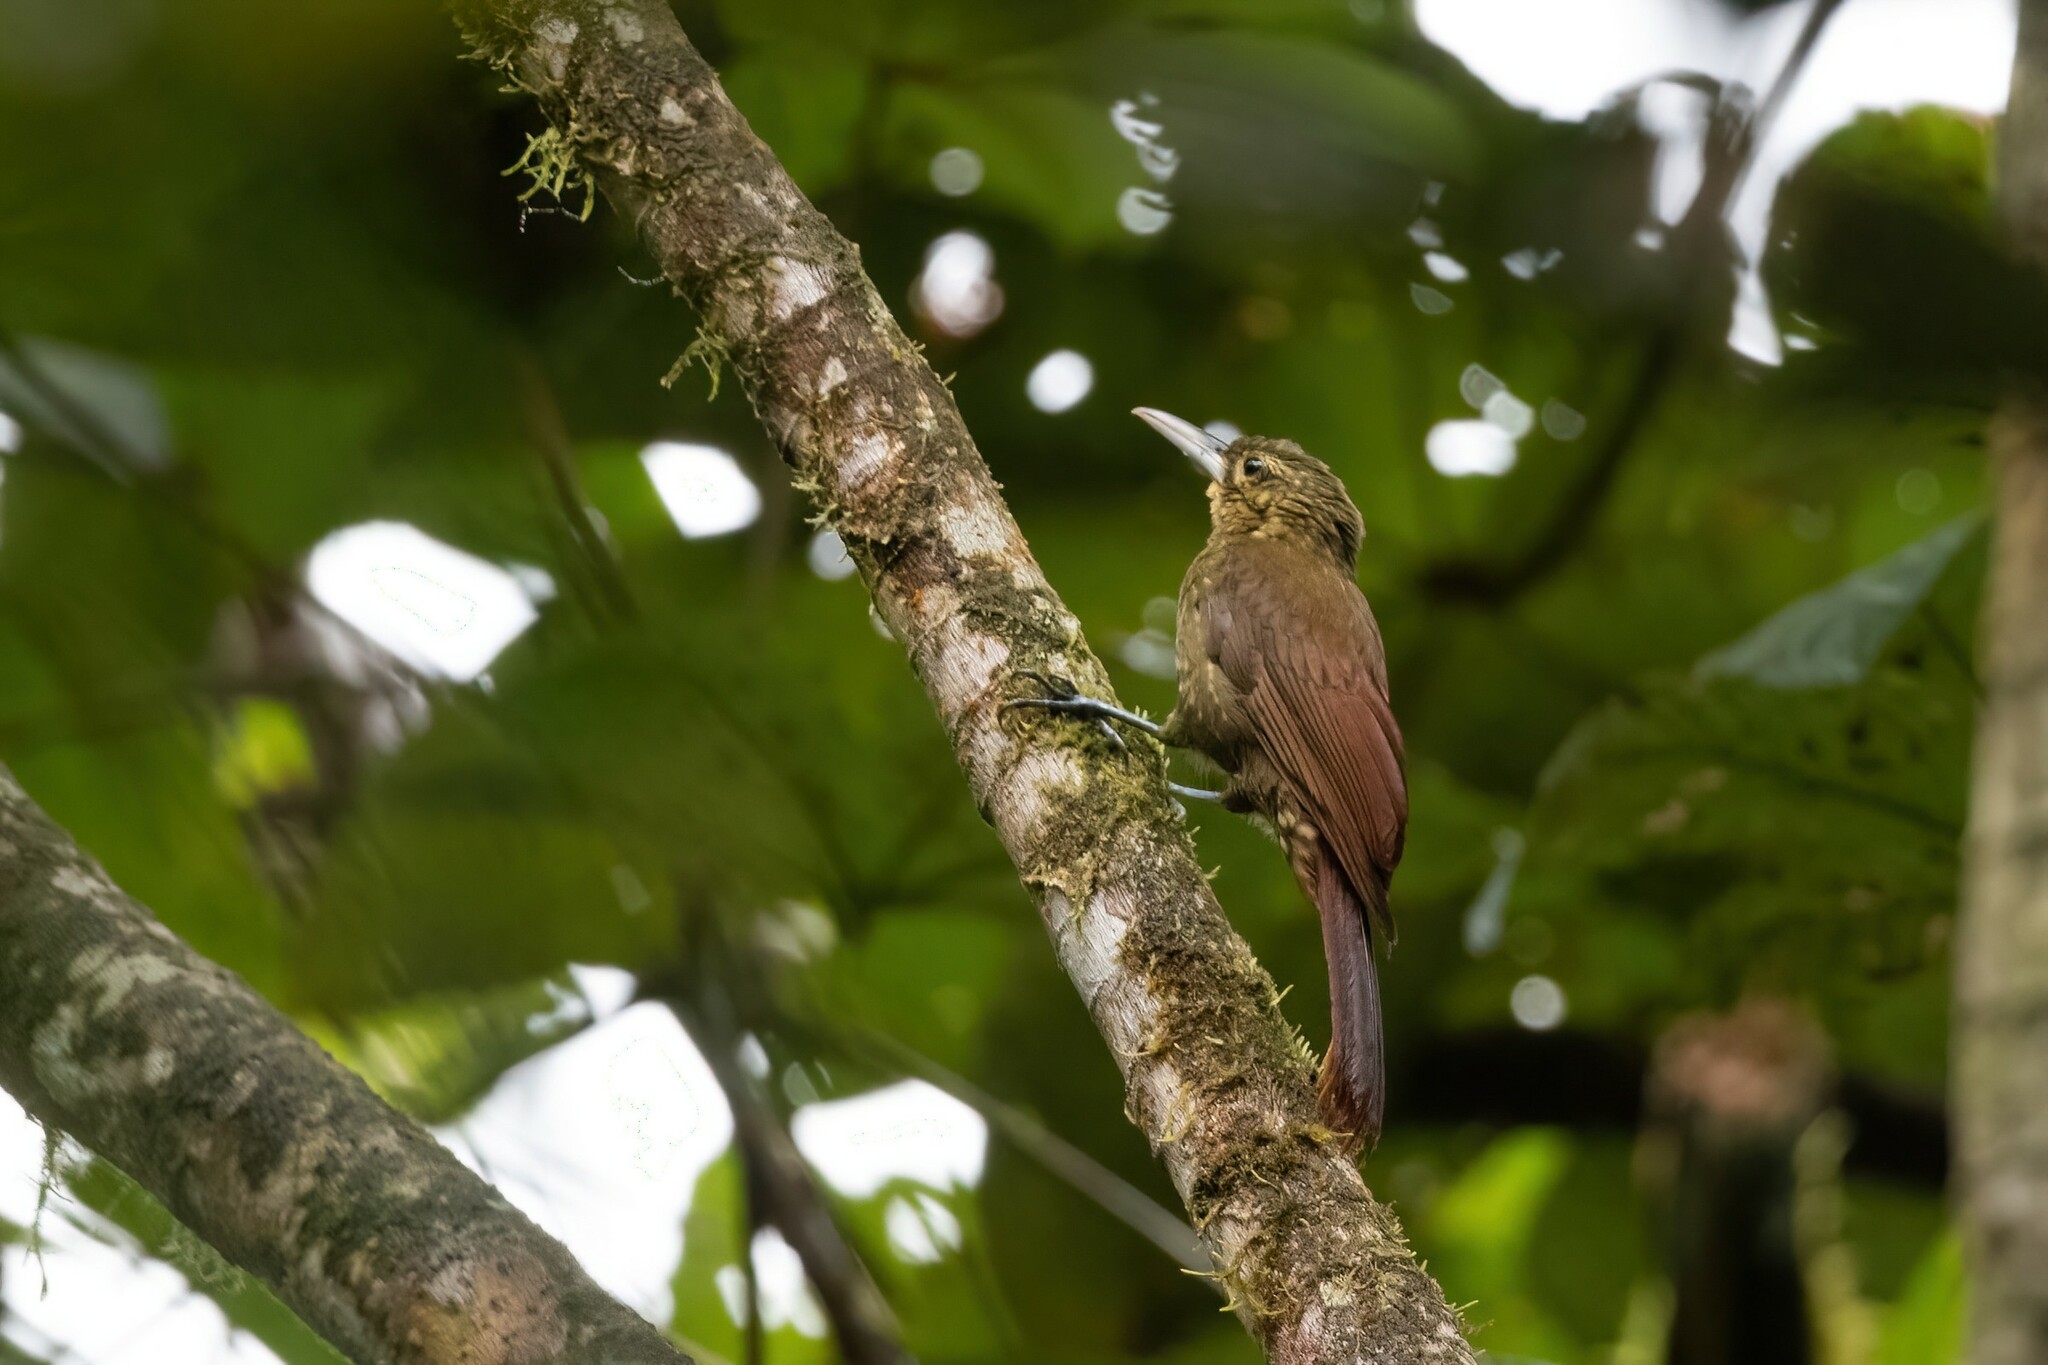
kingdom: Animalia
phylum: Chordata
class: Aves
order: Passeriformes
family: Furnariidae
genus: Xiphorhynchus
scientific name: Xiphorhynchus erythropygius
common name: Spotted woodcreeper
